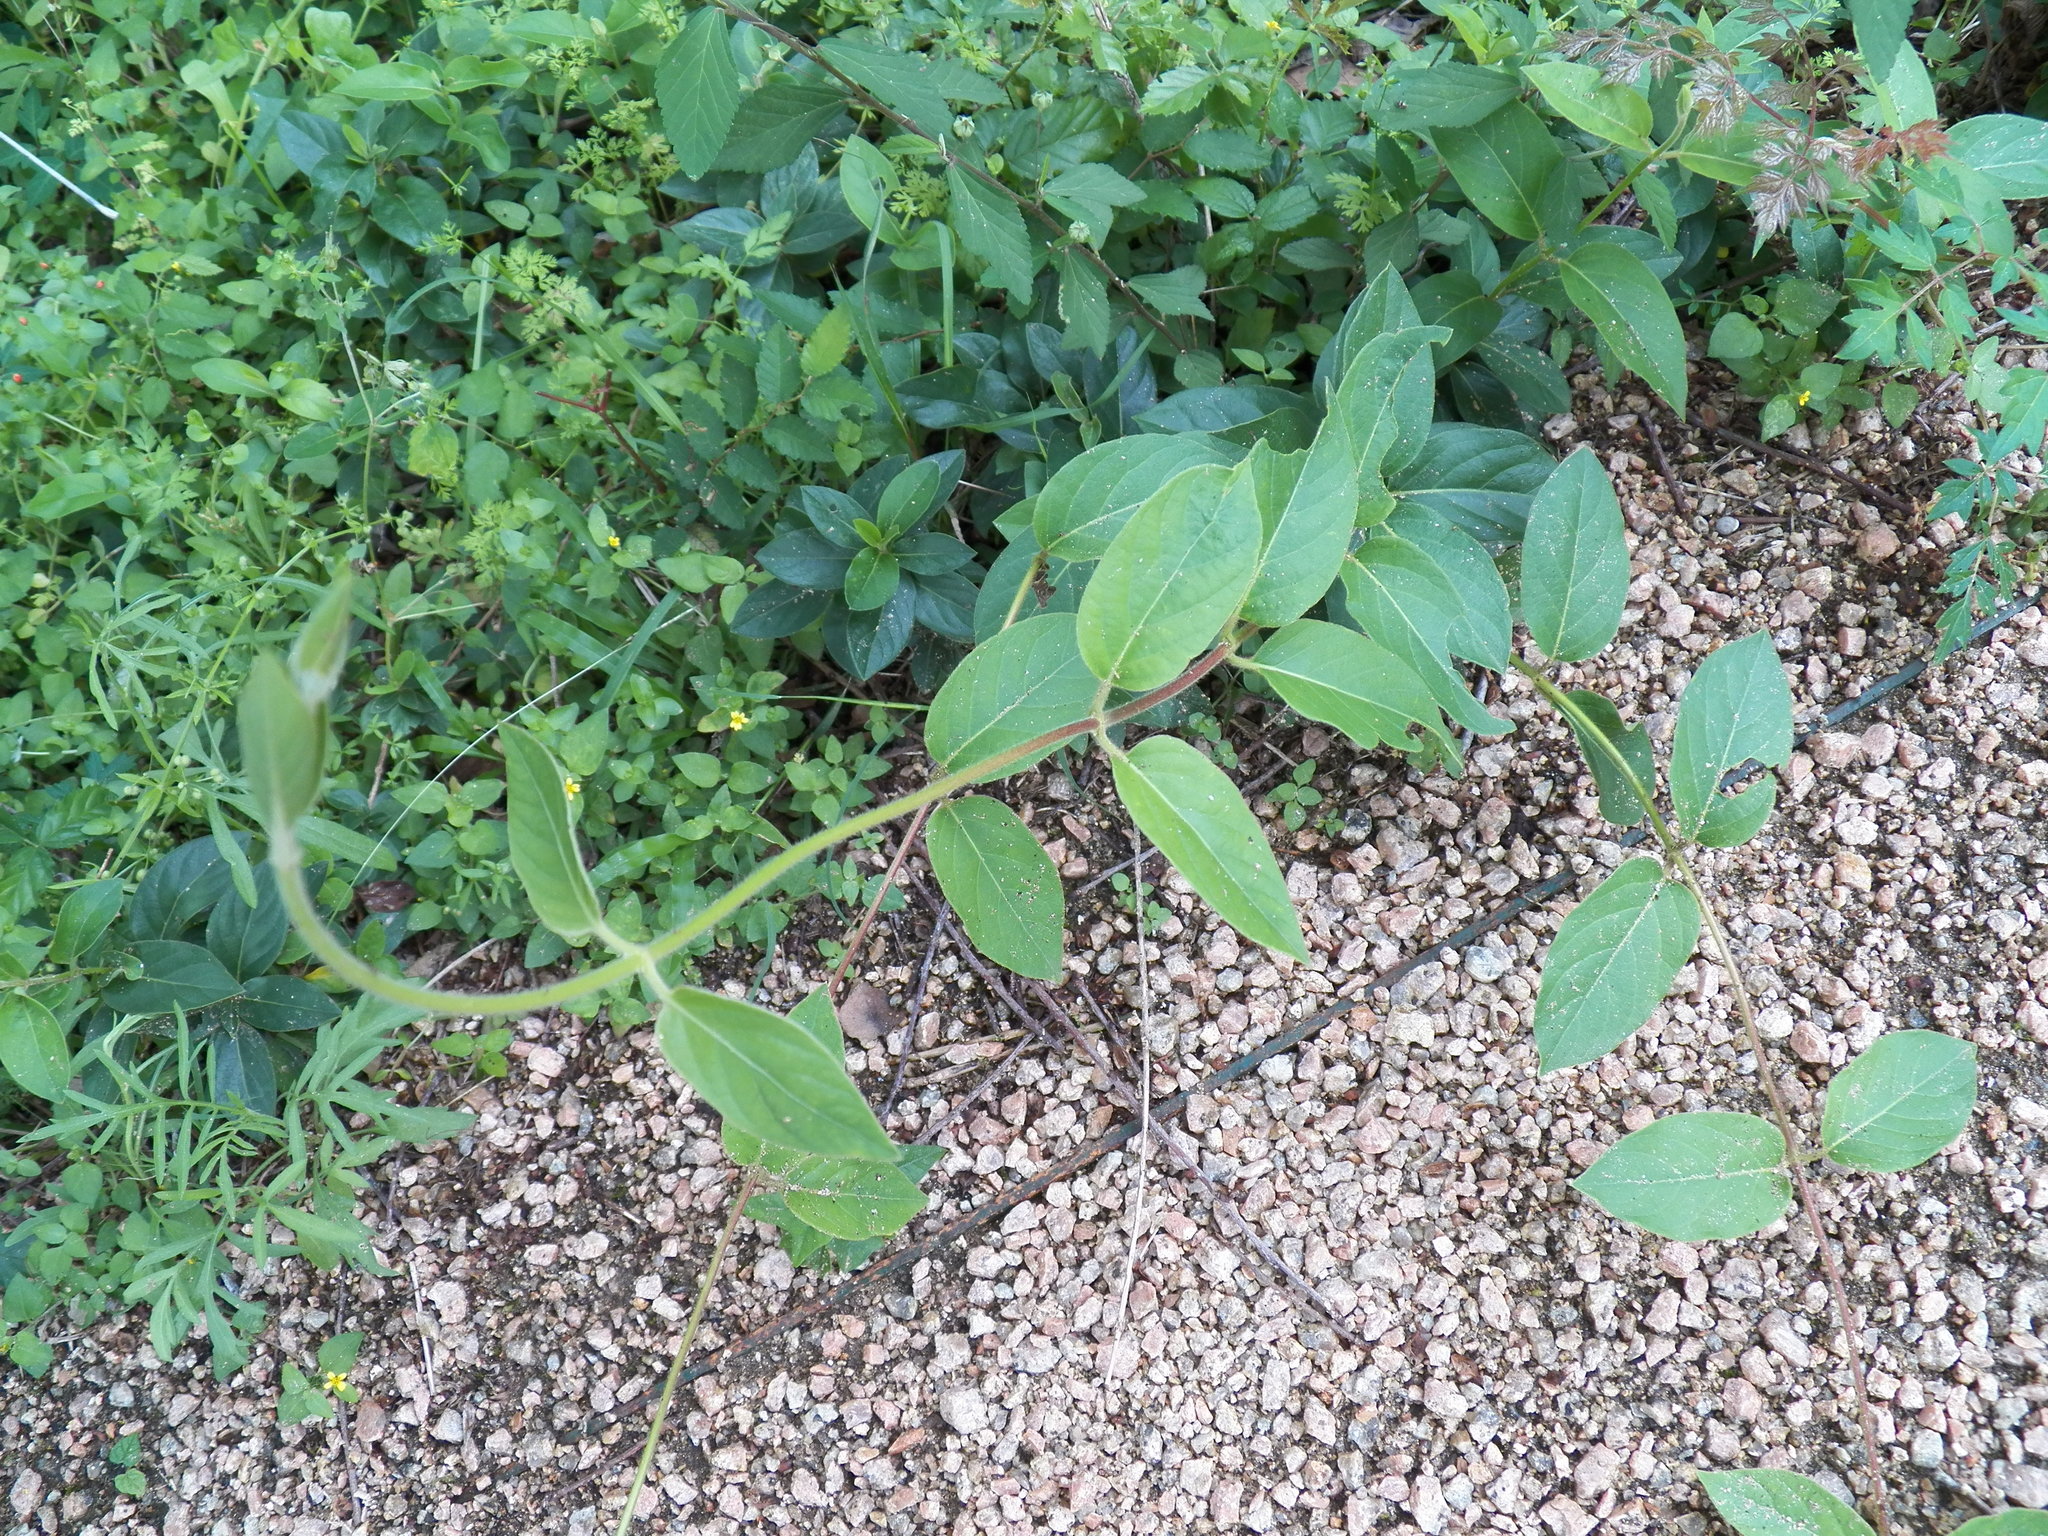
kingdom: Plantae
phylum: Tracheophyta
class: Magnoliopsida
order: Dipsacales
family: Caprifoliaceae
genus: Lonicera
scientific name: Lonicera japonica
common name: Japanese honeysuckle
